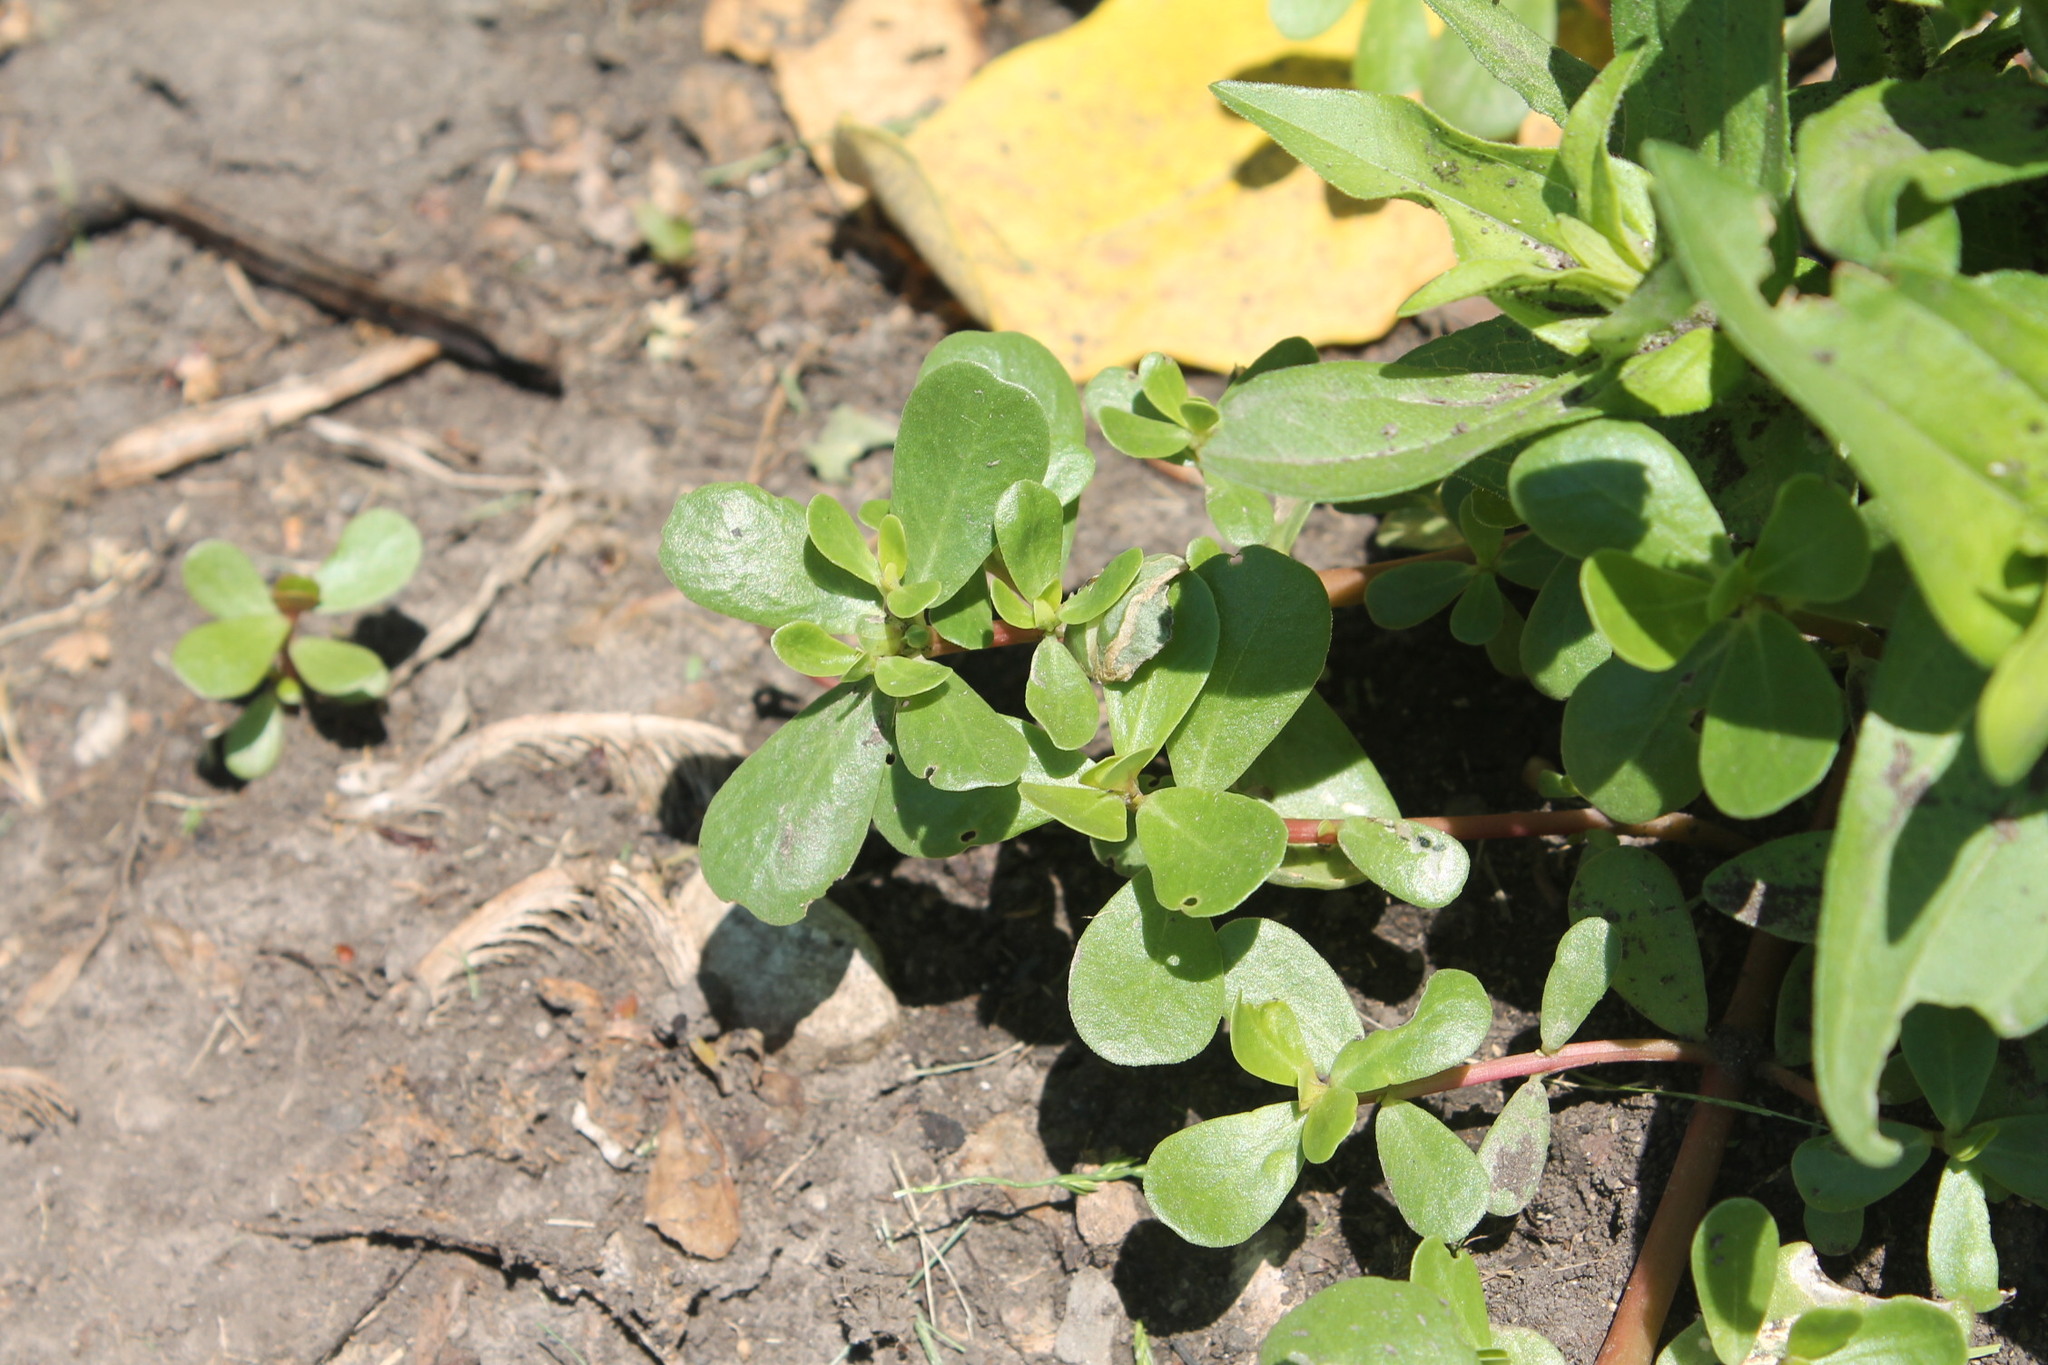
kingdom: Plantae
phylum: Tracheophyta
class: Magnoliopsida
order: Caryophyllales
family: Portulacaceae
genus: Portulaca
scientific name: Portulaca oleracea
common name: Common purslane
